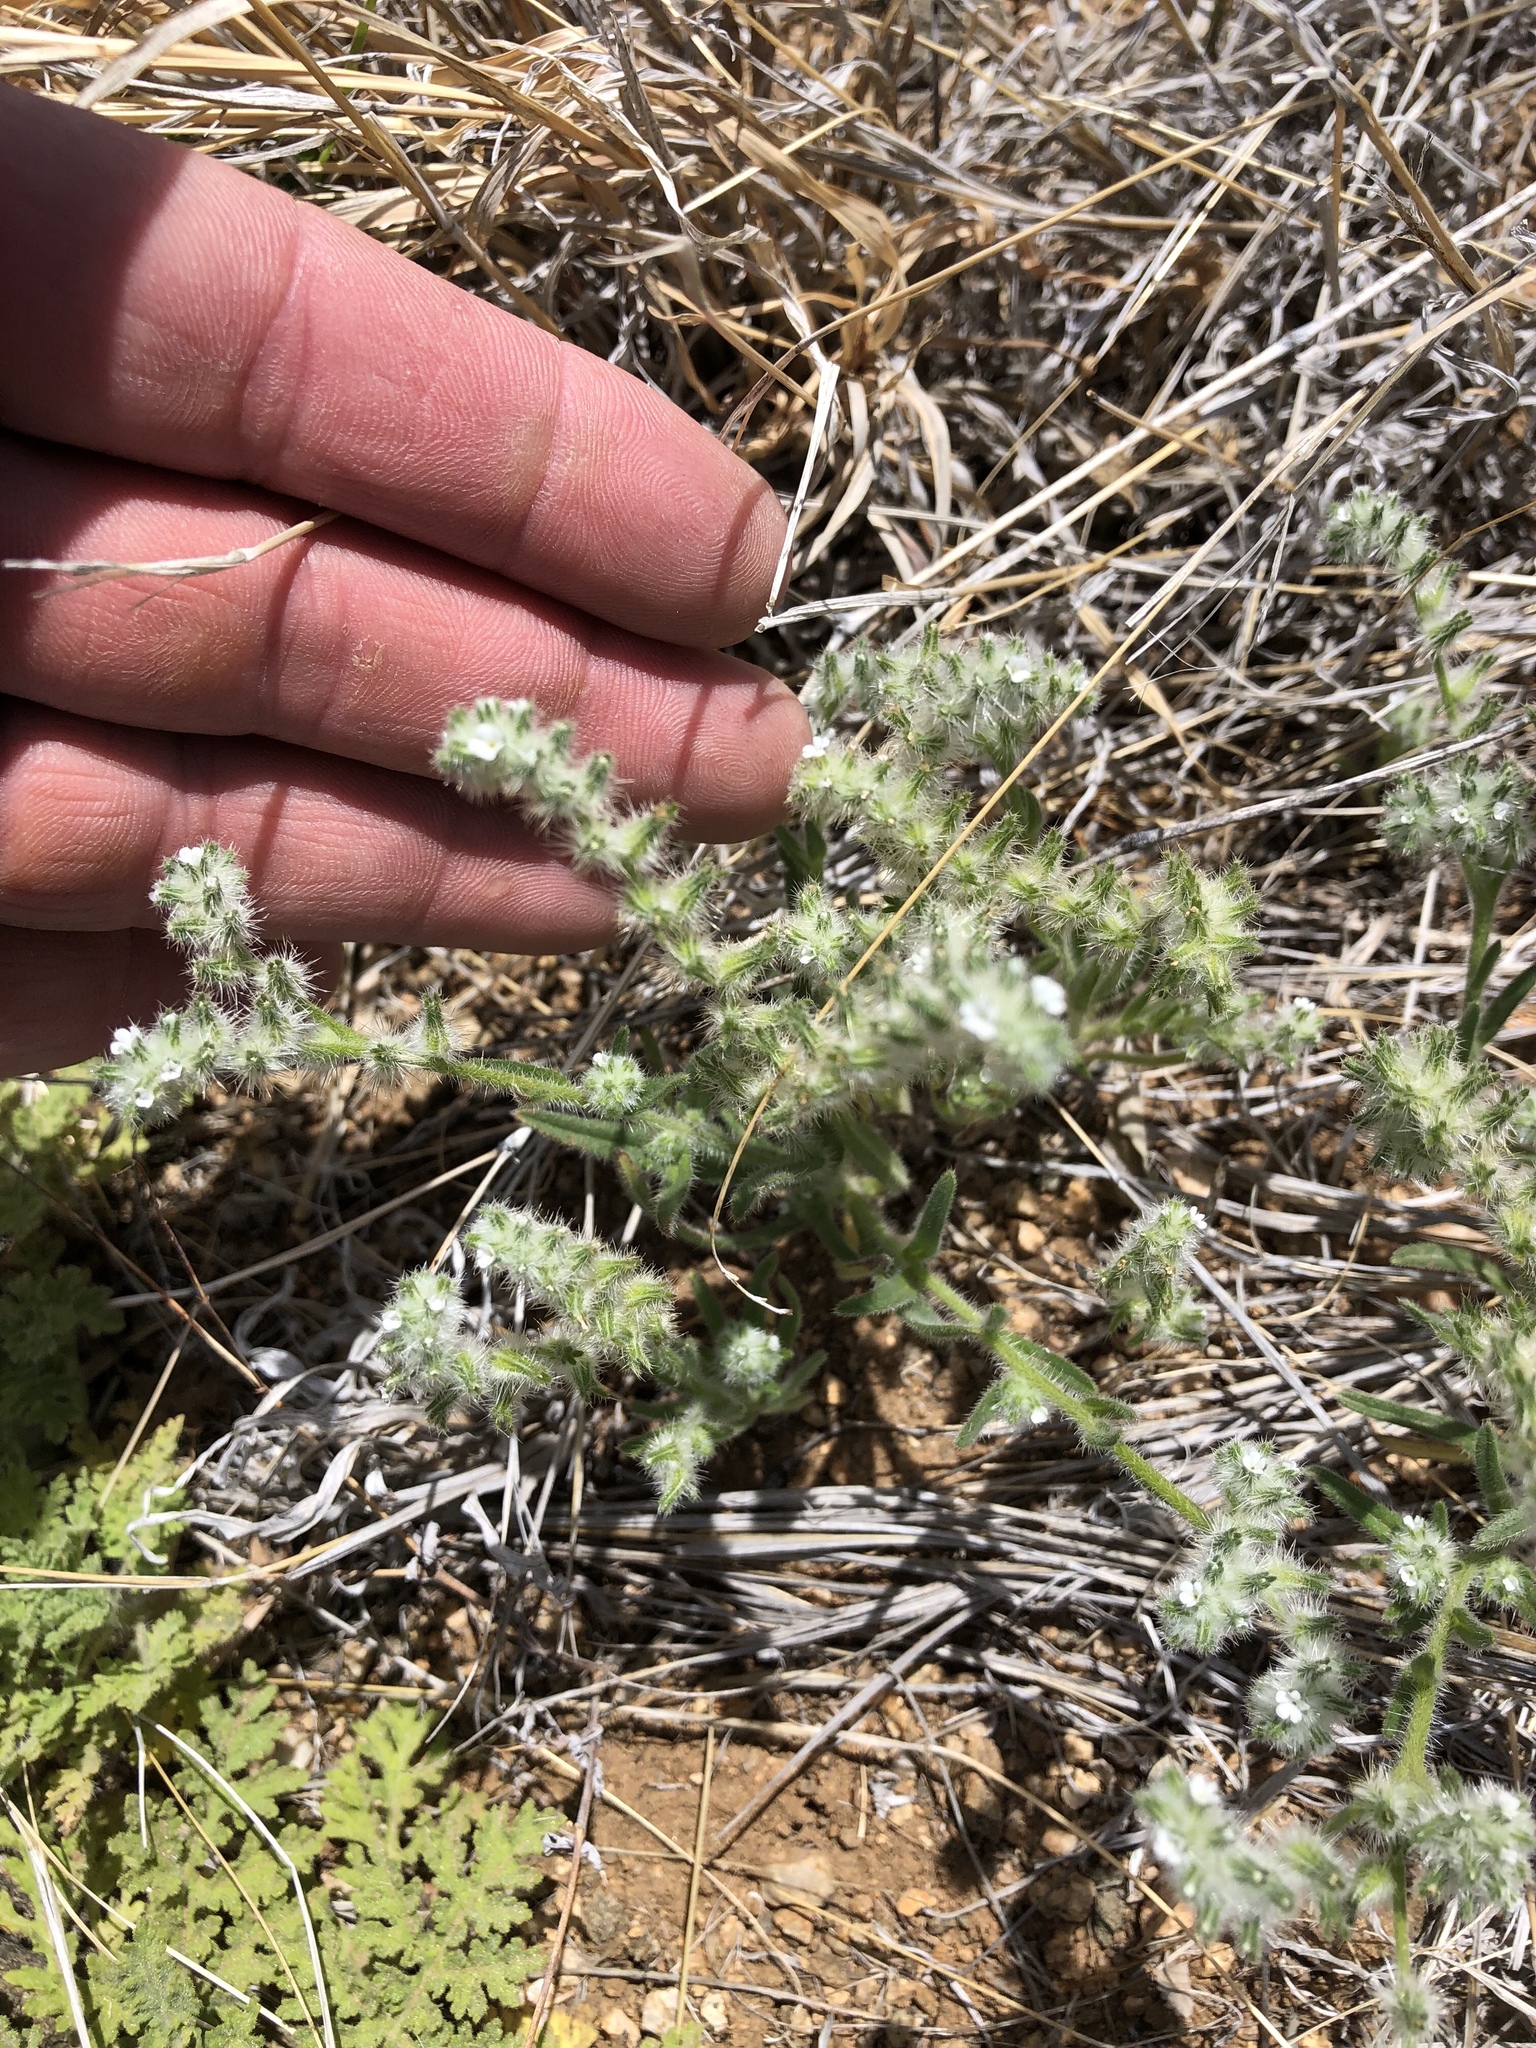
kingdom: Plantae
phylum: Tracheophyta
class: Magnoliopsida
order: Boraginales
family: Boraginaceae
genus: Cryptantha
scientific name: Cryptantha crassisepala
